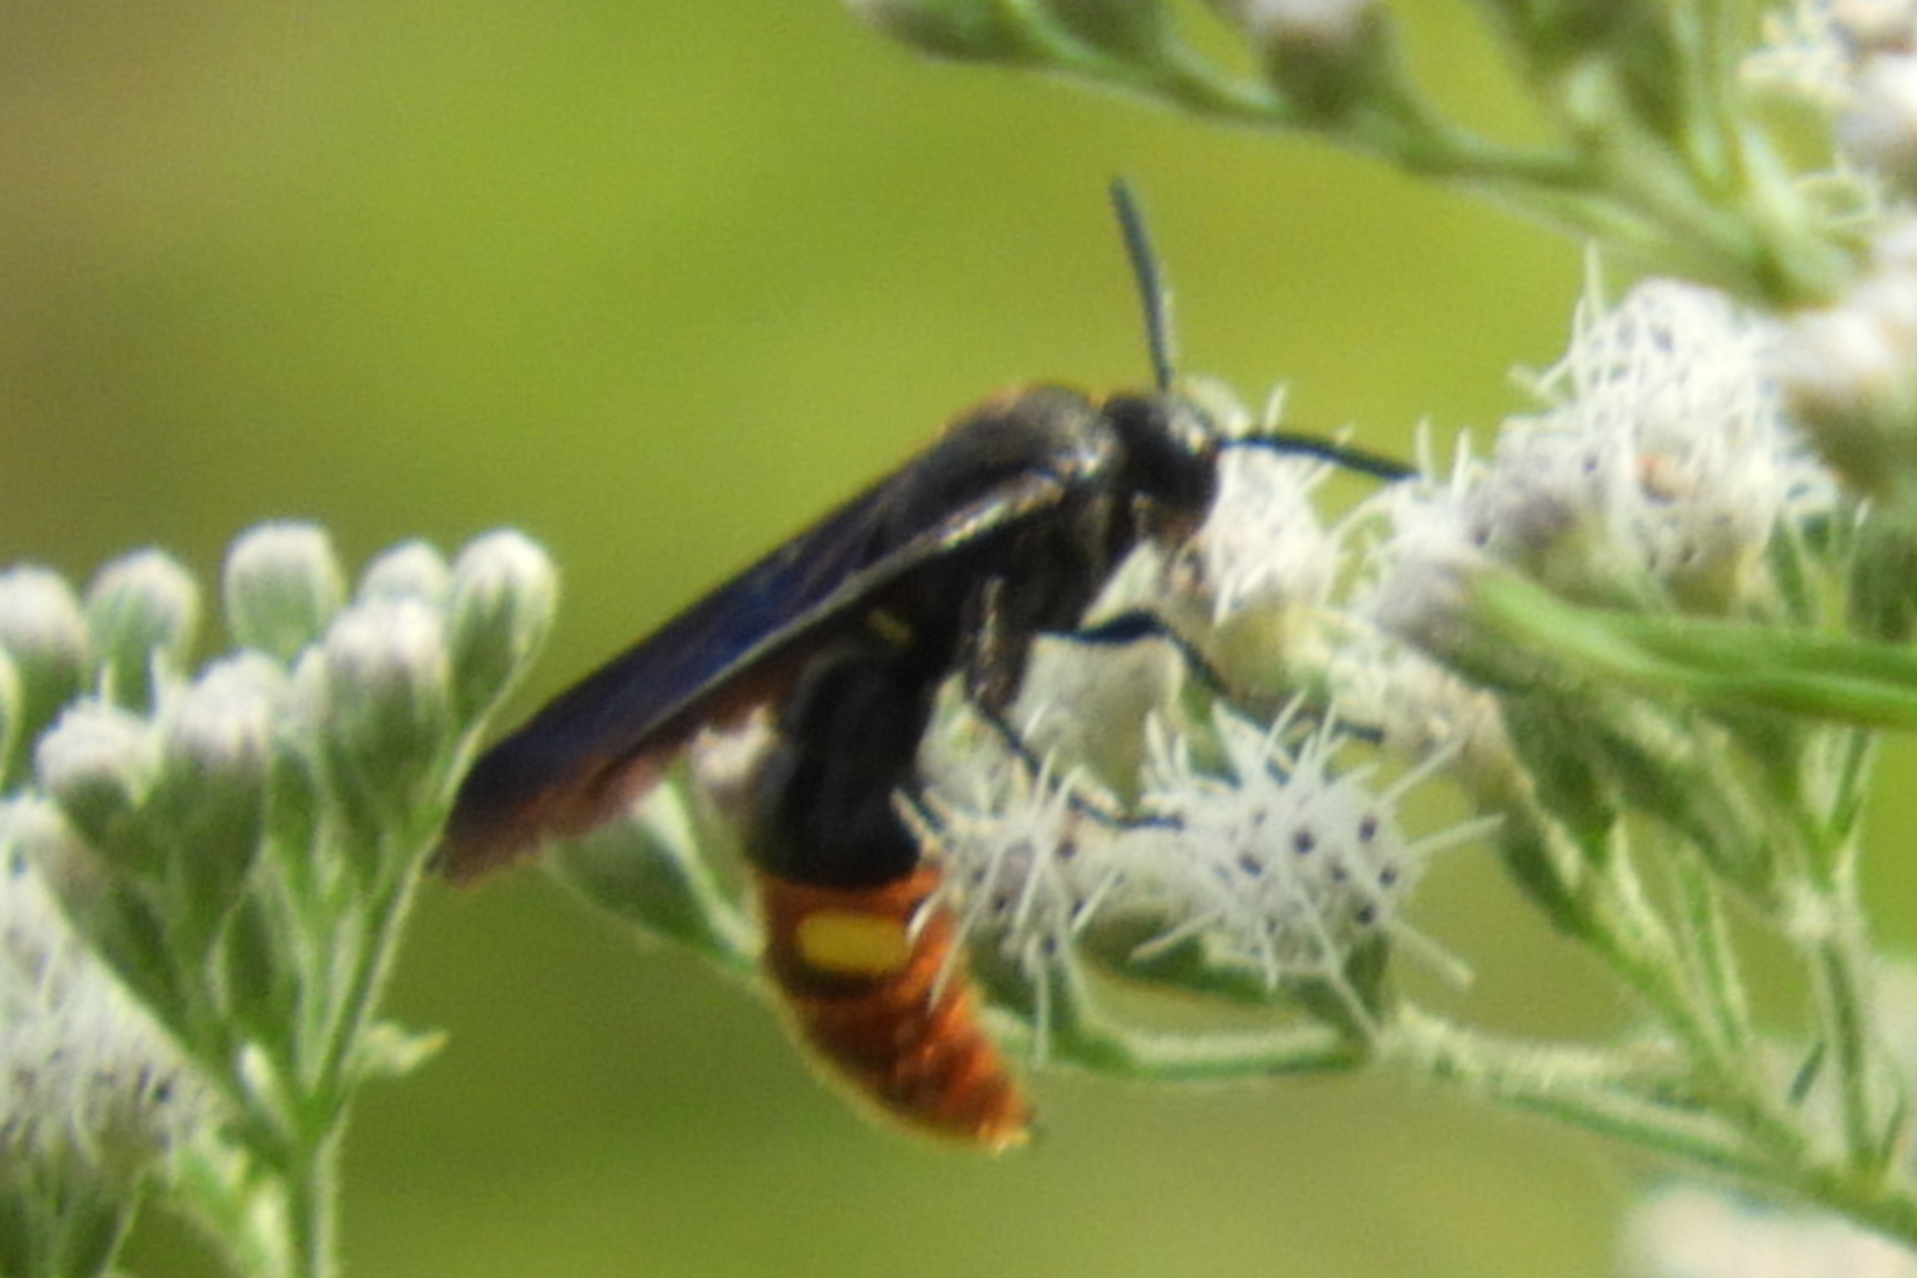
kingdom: Animalia
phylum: Arthropoda
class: Insecta
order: Hymenoptera
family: Scoliidae
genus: Scolia
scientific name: Scolia dubia
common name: Blue-winged scoliid wasp
